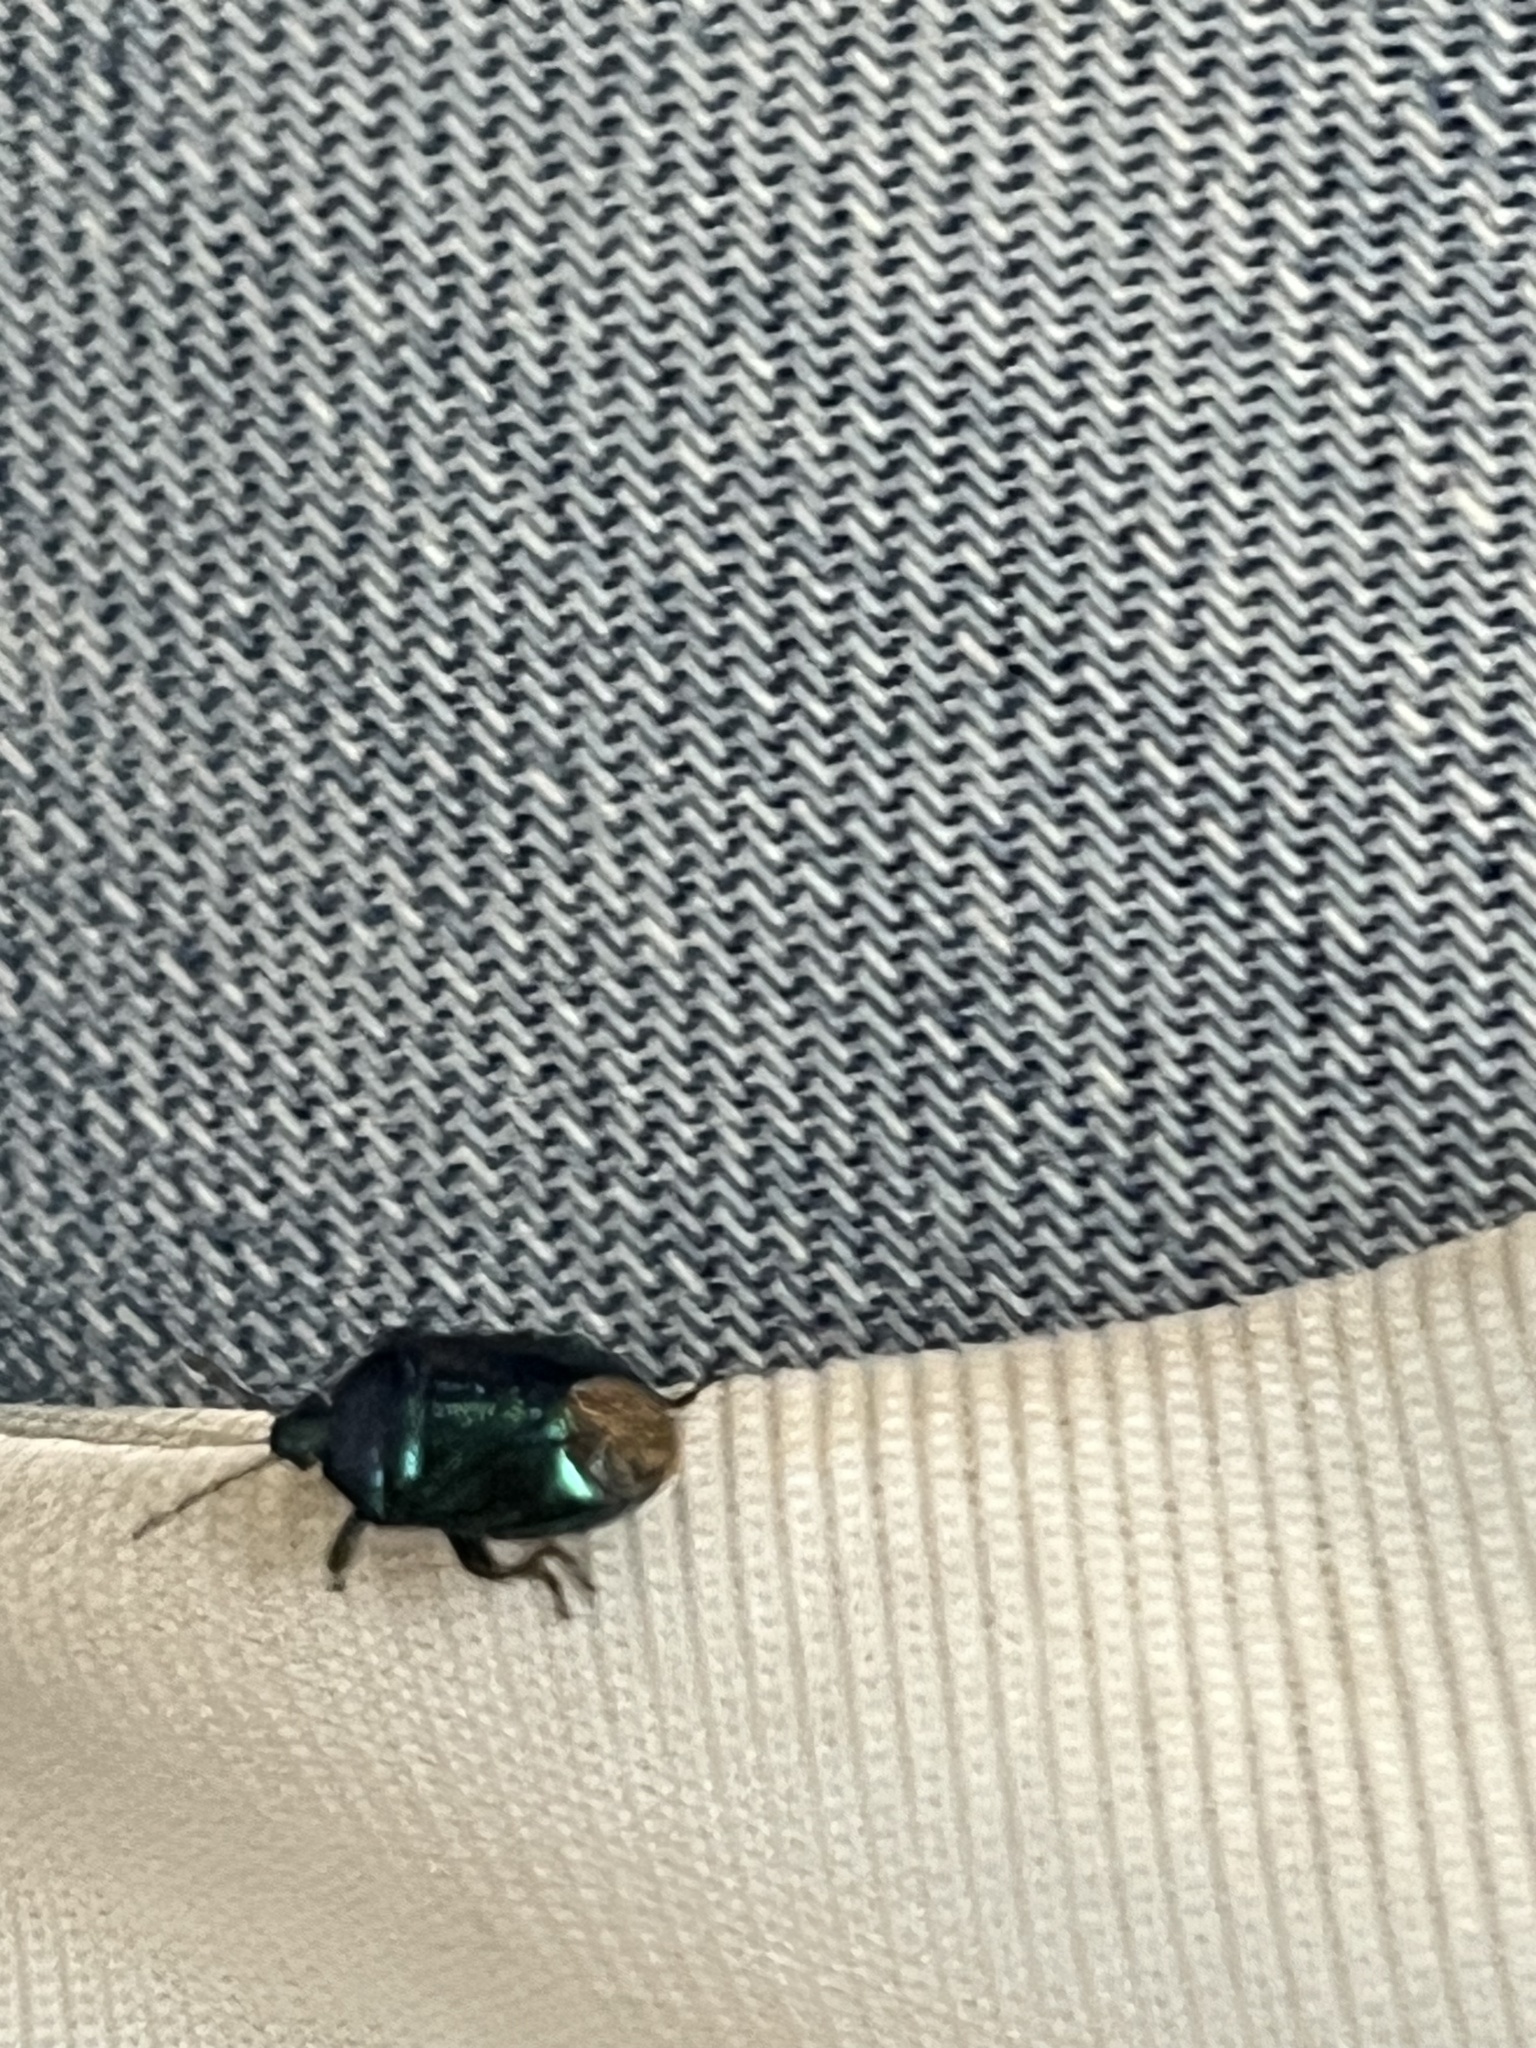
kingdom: Animalia
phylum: Arthropoda
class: Insecta
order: Hemiptera
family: Pentatomidae
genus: Zicrona
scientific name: Zicrona caerulea
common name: Blue shieldbug
